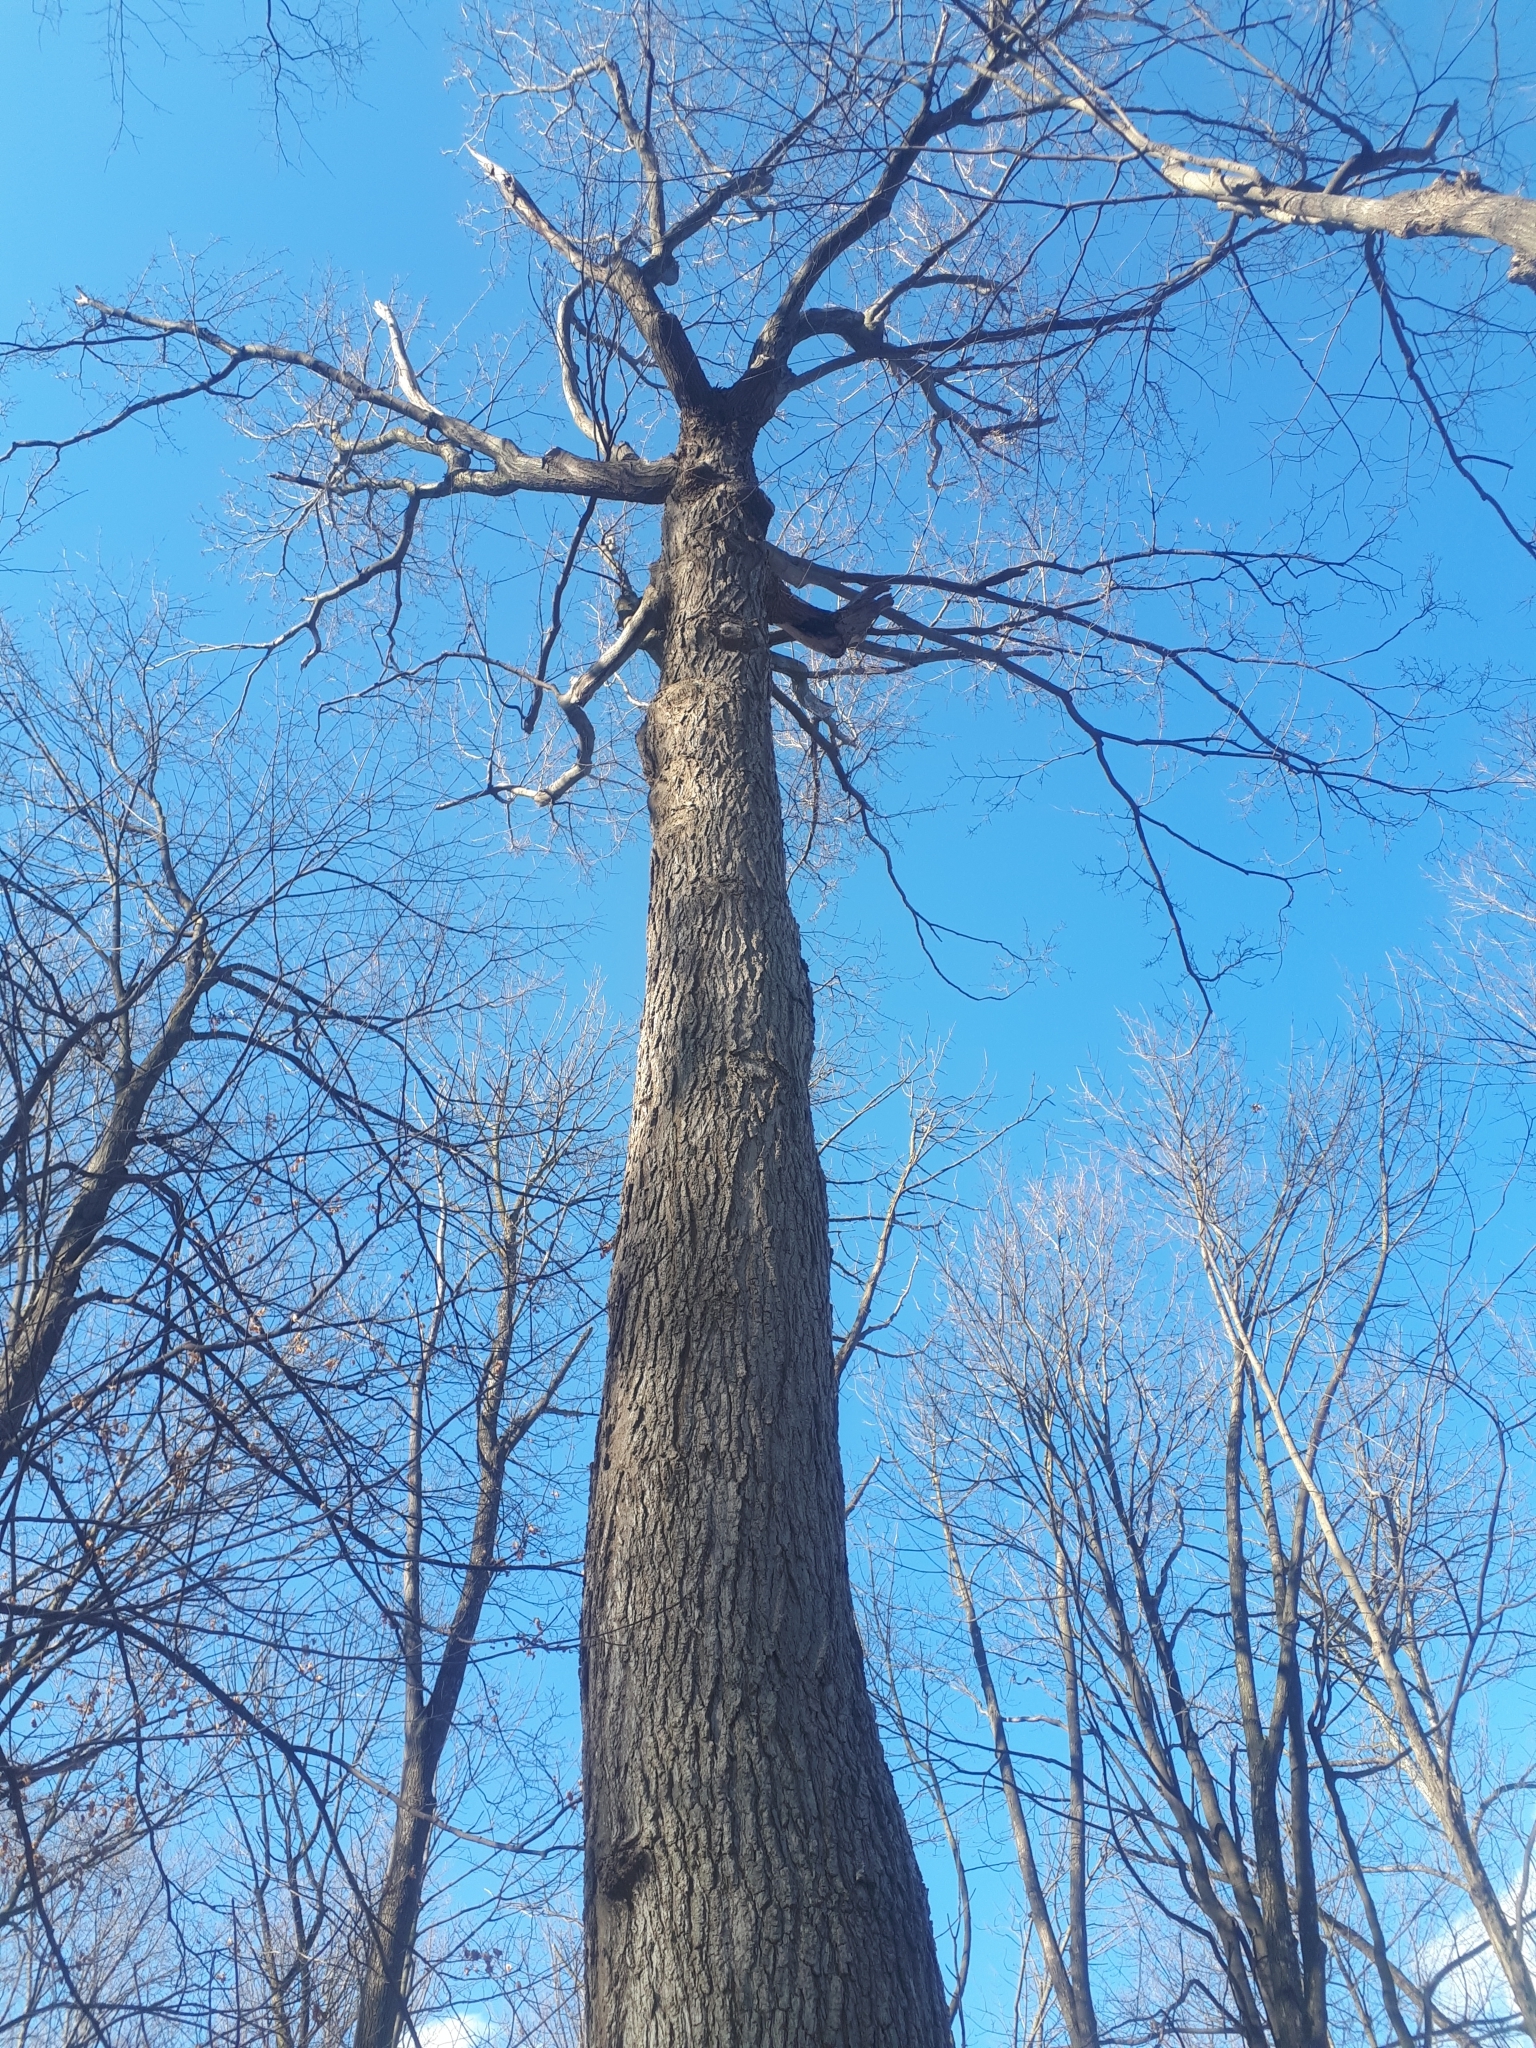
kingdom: Plantae
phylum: Tracheophyta
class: Magnoliopsida
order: Sapindales
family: Sapindaceae
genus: Acer
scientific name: Acer saccharum
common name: Sugar maple
